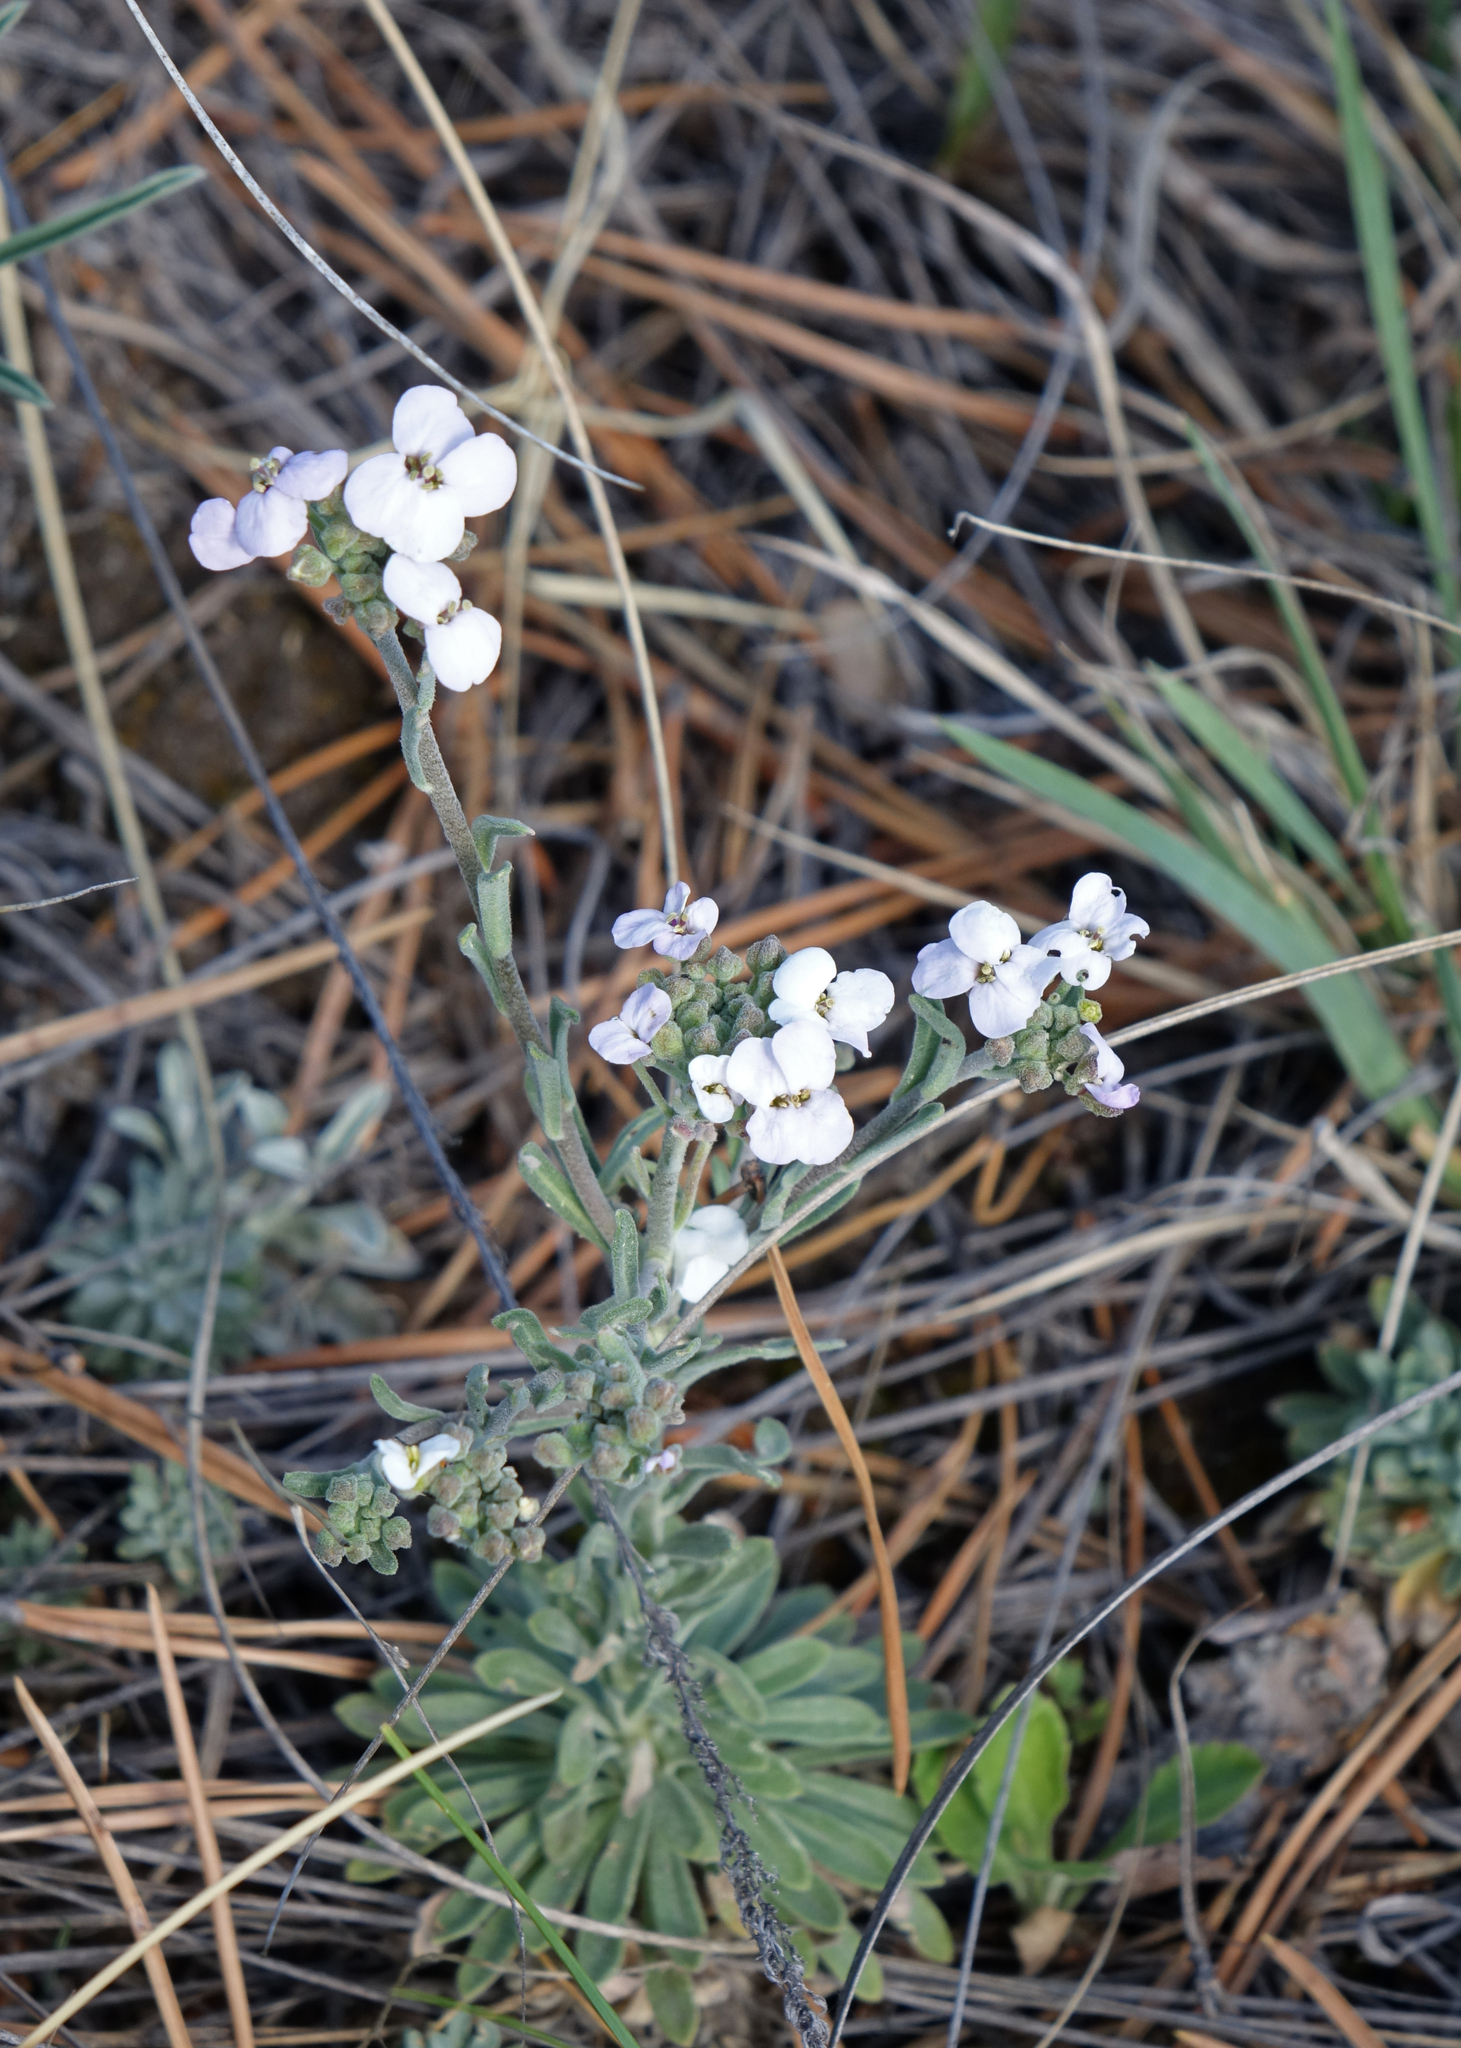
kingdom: Plantae
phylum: Tracheophyta
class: Magnoliopsida
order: Brassicales
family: Brassicaceae
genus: Stevenia
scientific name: Stevenia incarnata
